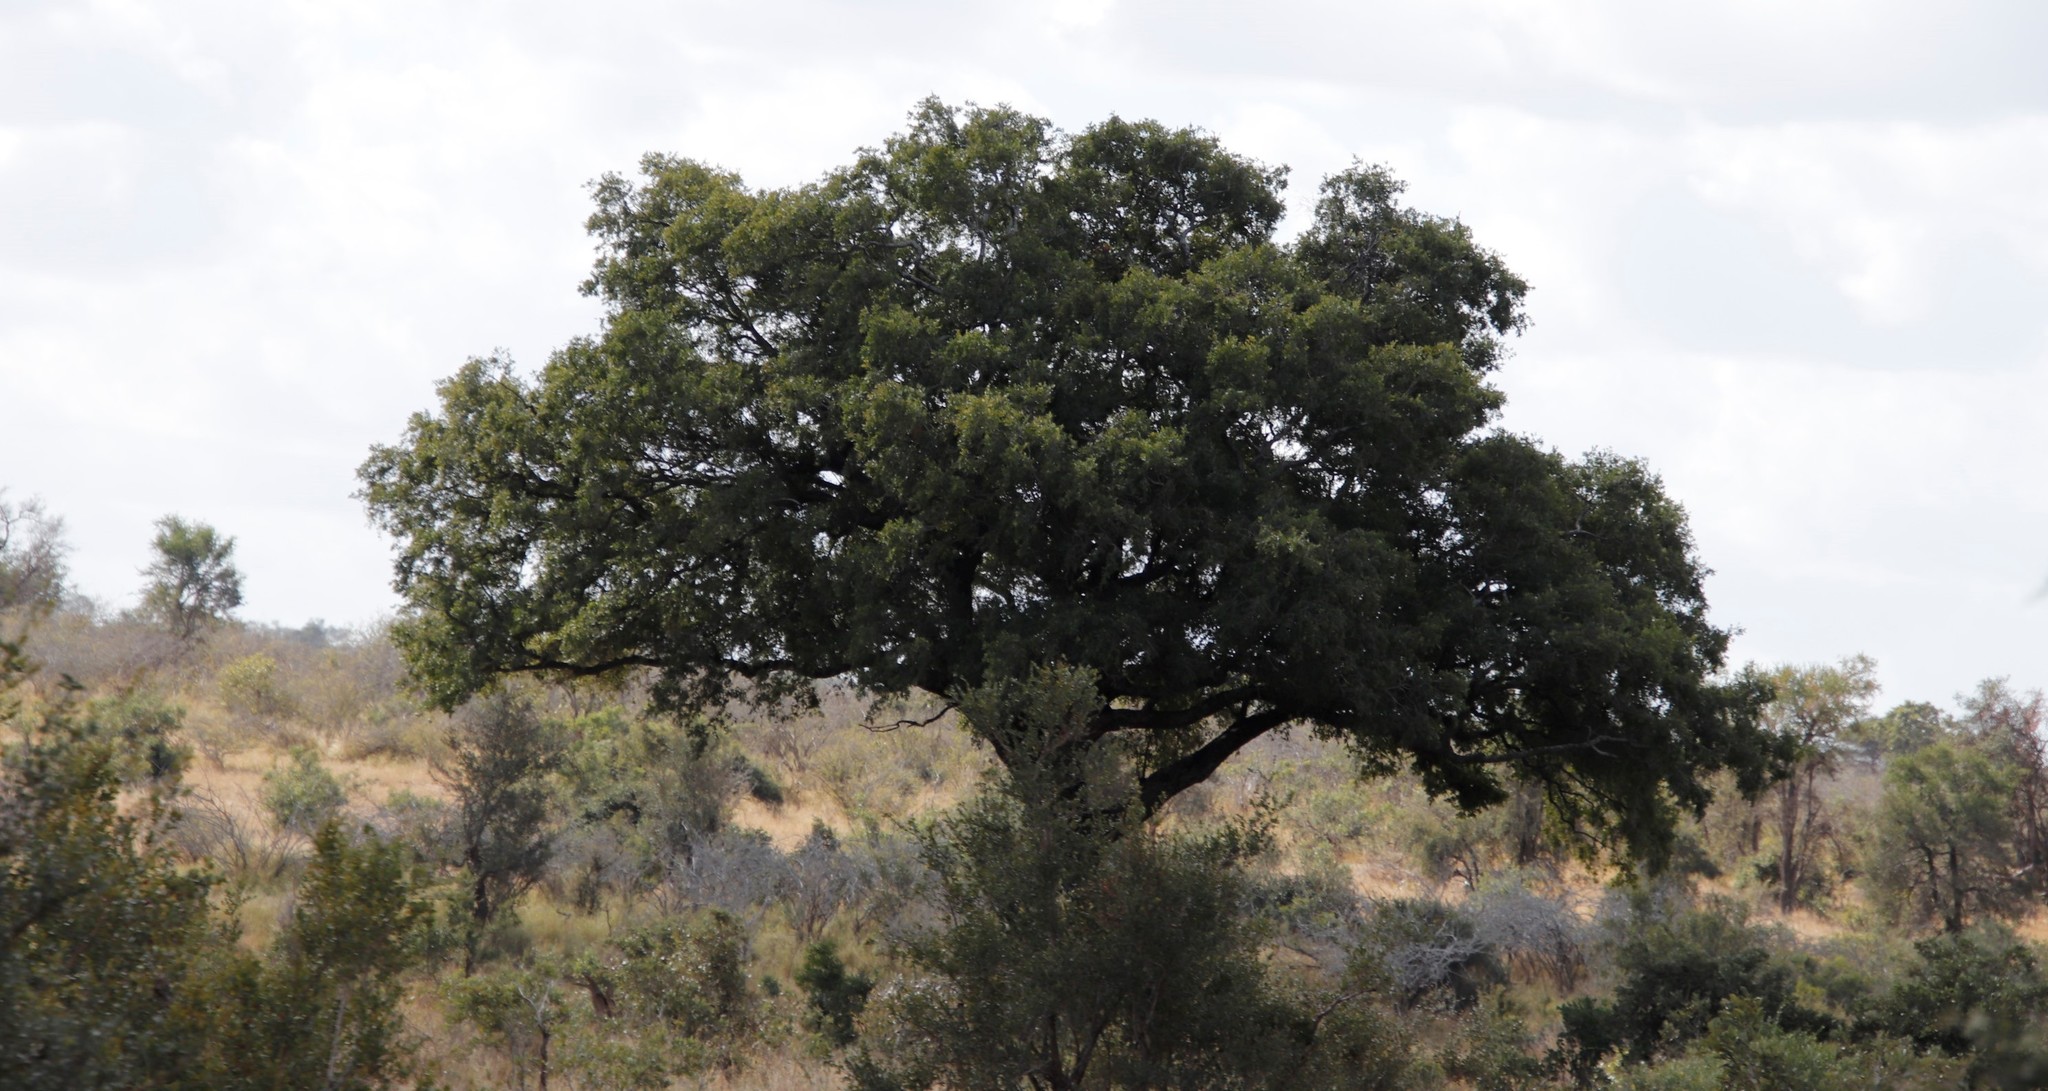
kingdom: Plantae
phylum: Tracheophyta
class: Magnoliopsida
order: Ericales
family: Ebenaceae
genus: Diospyros
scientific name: Diospyros mespiliformis
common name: Ebony diospyros
